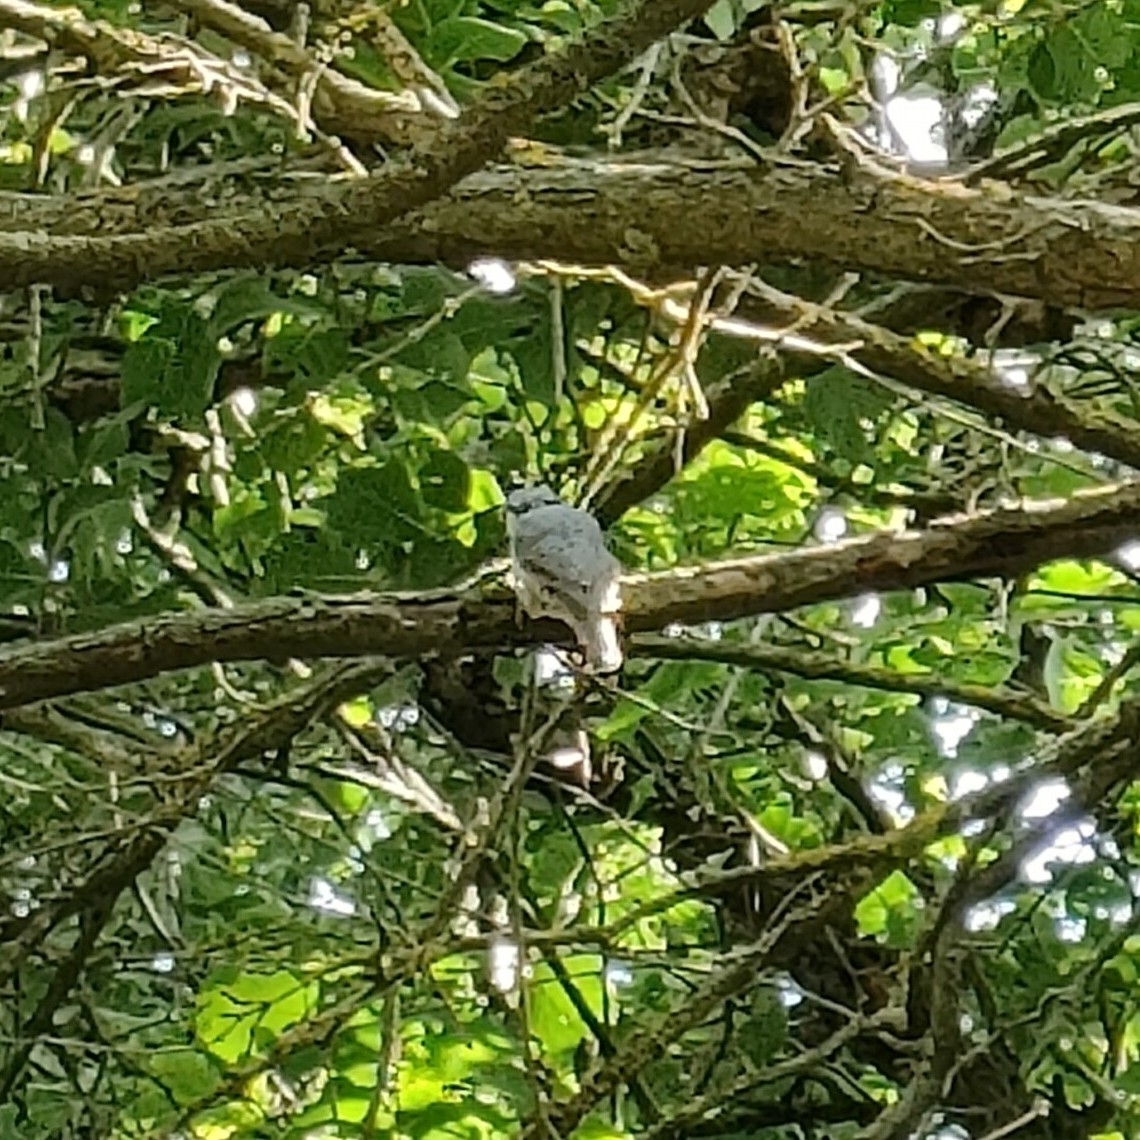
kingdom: Animalia
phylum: Chordata
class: Aves
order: Passeriformes
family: Sittidae
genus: Sitta
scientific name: Sitta europaea
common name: Eurasian nuthatch
